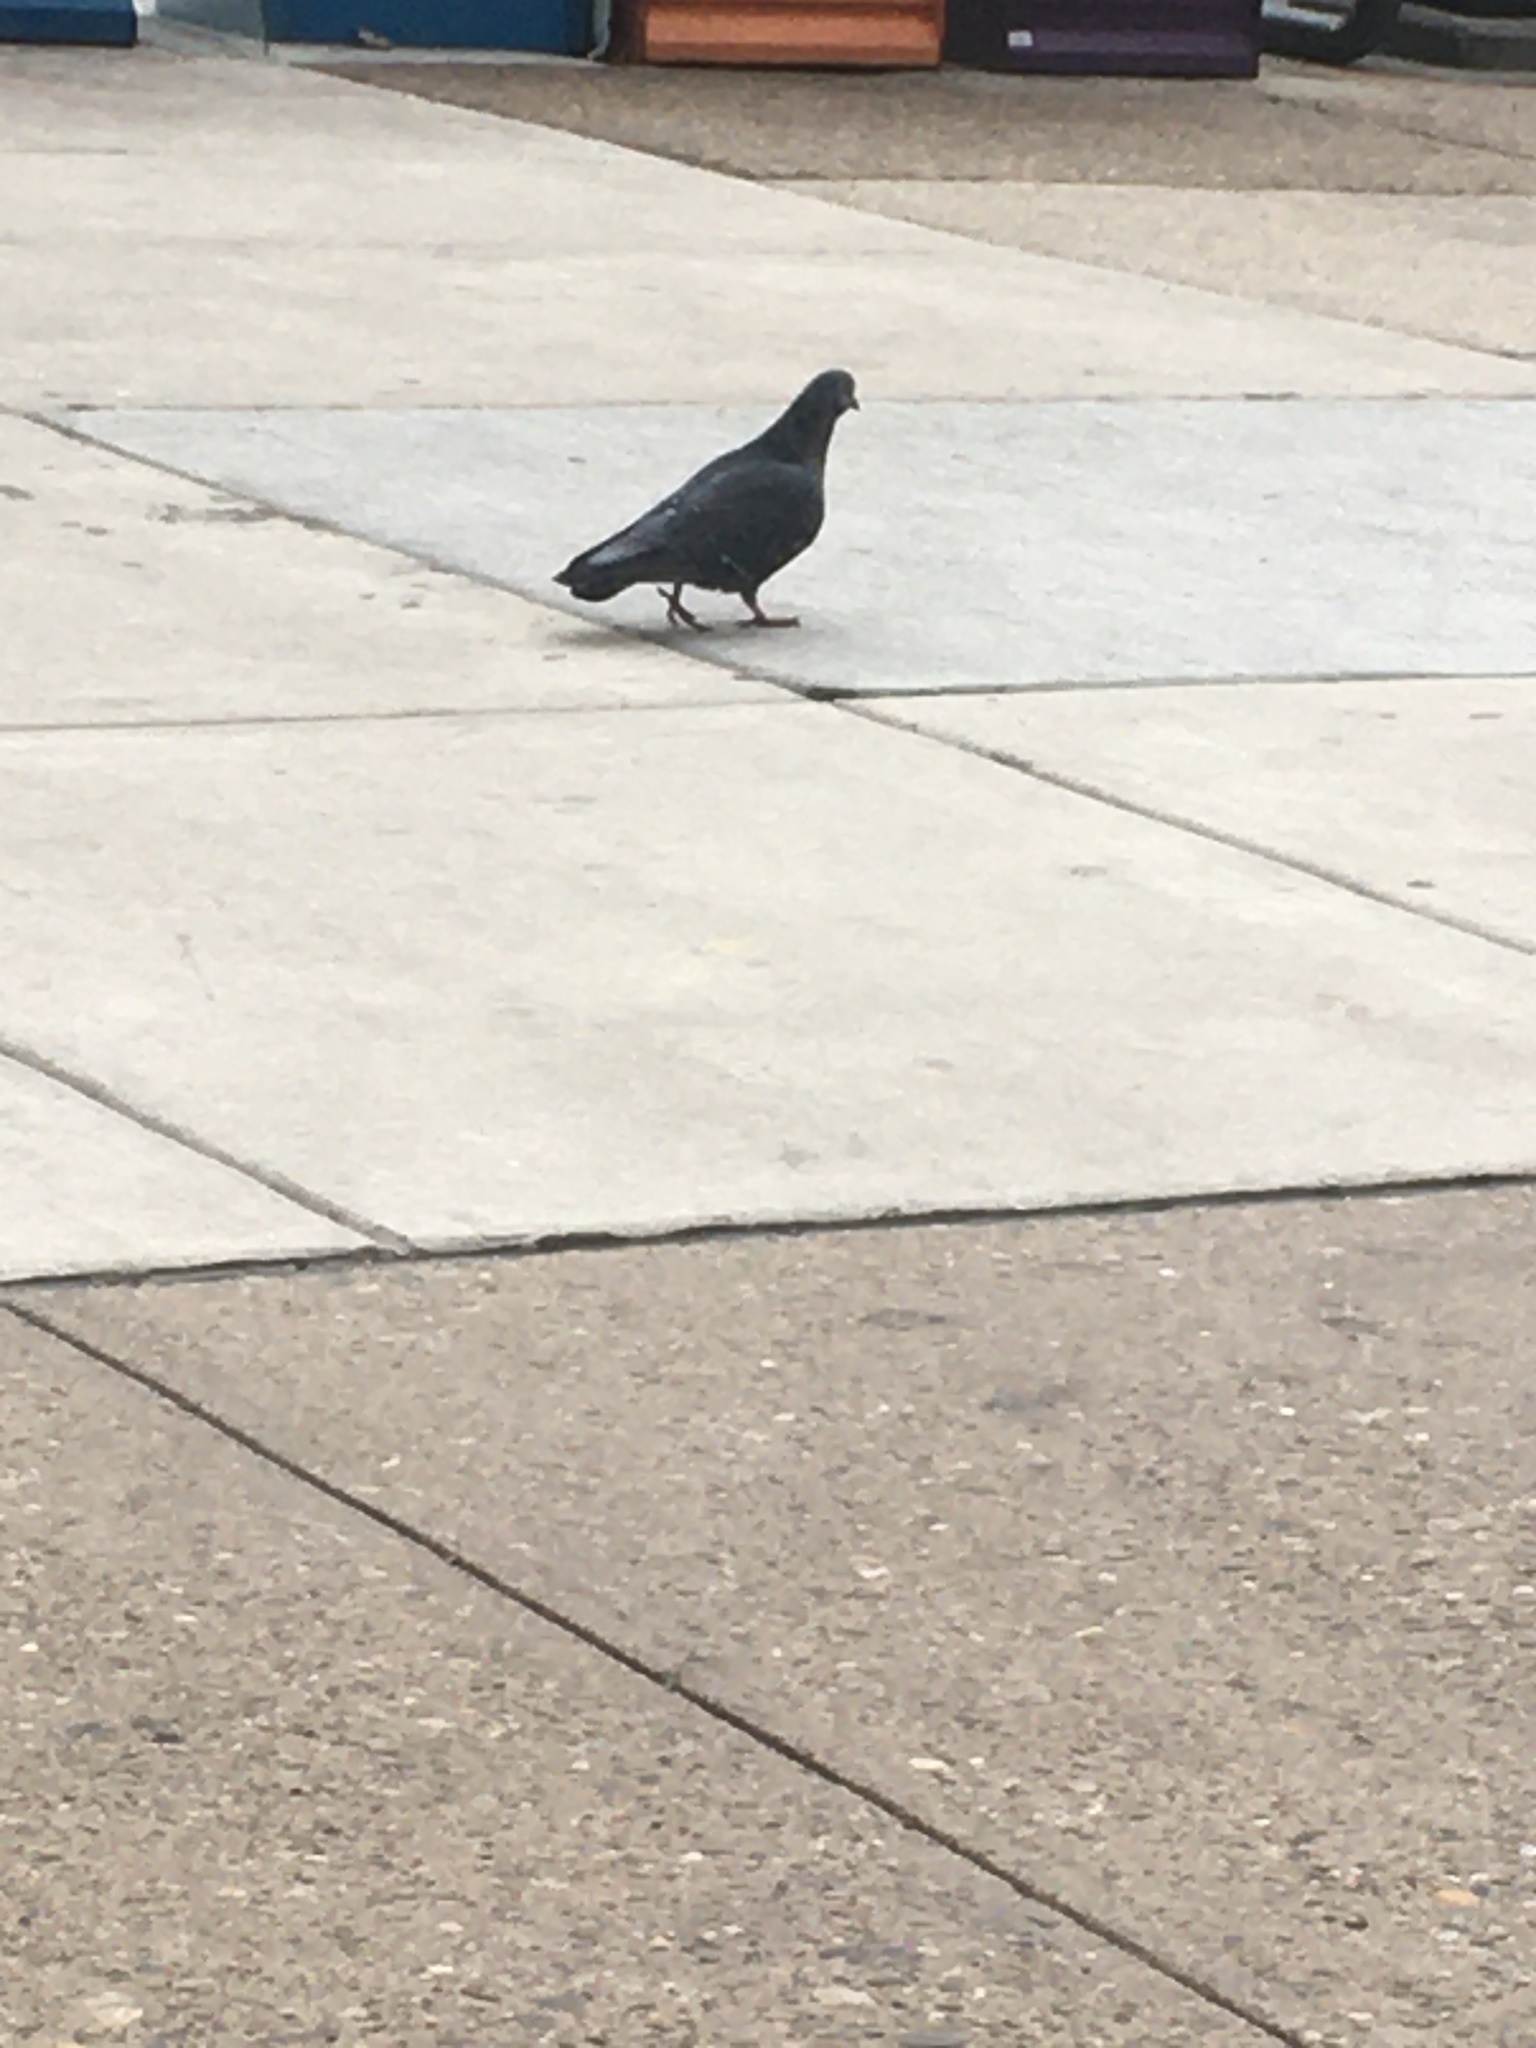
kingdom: Animalia
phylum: Chordata
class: Aves
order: Columbiformes
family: Columbidae
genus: Columba
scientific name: Columba livia
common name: Rock pigeon
